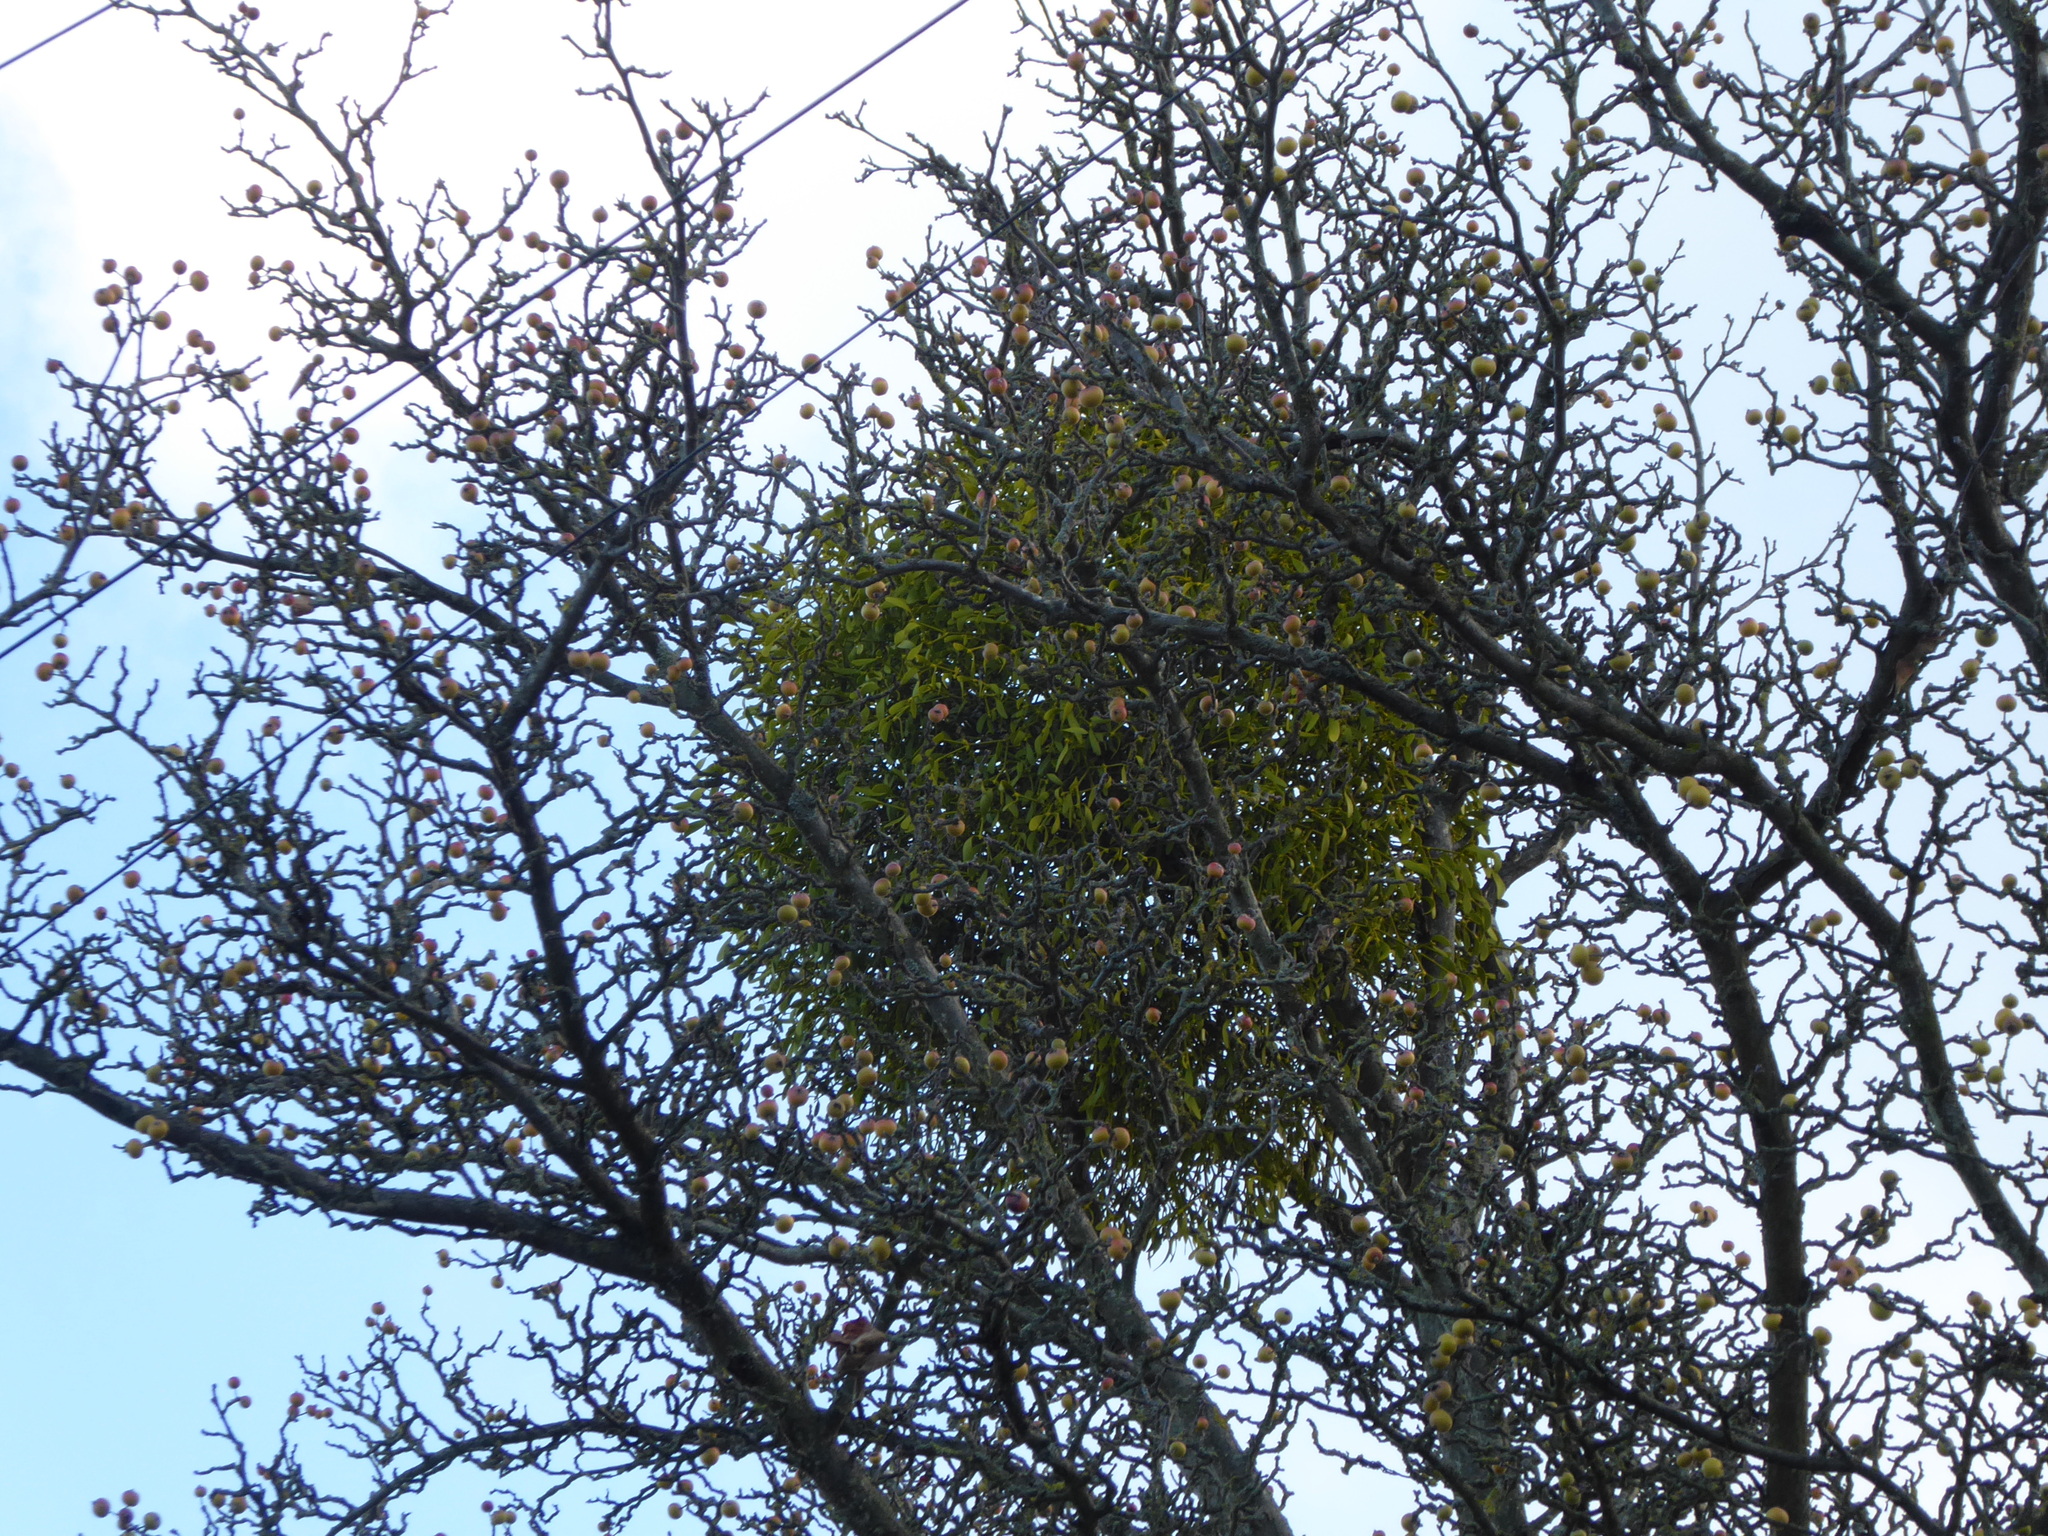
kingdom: Plantae
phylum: Tracheophyta
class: Magnoliopsida
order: Santalales
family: Viscaceae
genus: Viscum
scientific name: Viscum album
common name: Mistletoe
